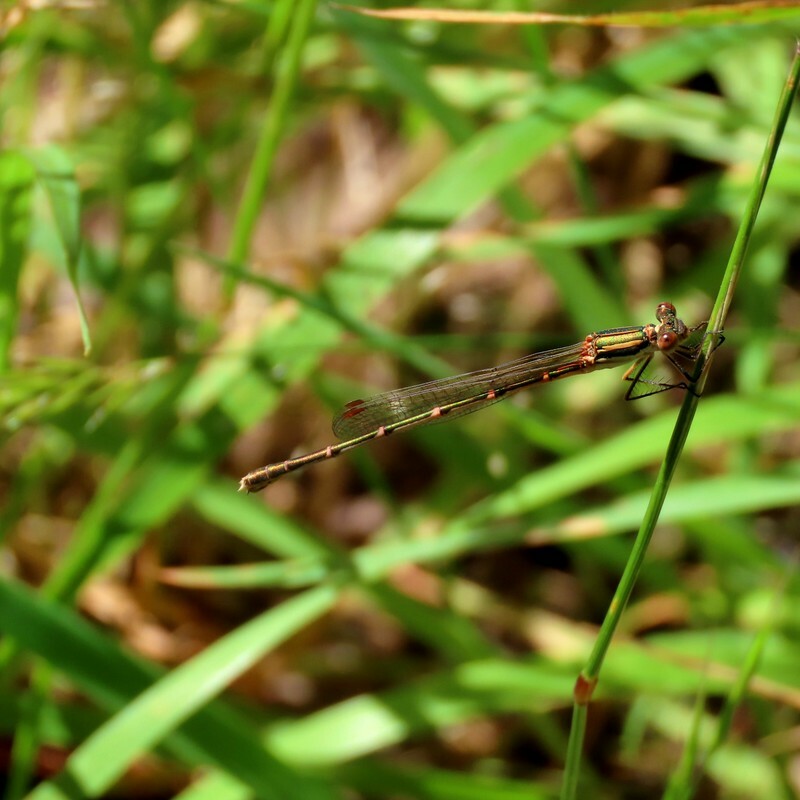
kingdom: Animalia
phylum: Arthropoda
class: Insecta
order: Odonata
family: Lestidae
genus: Austrolestes
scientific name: Austrolestes analis
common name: Slender ringtail
